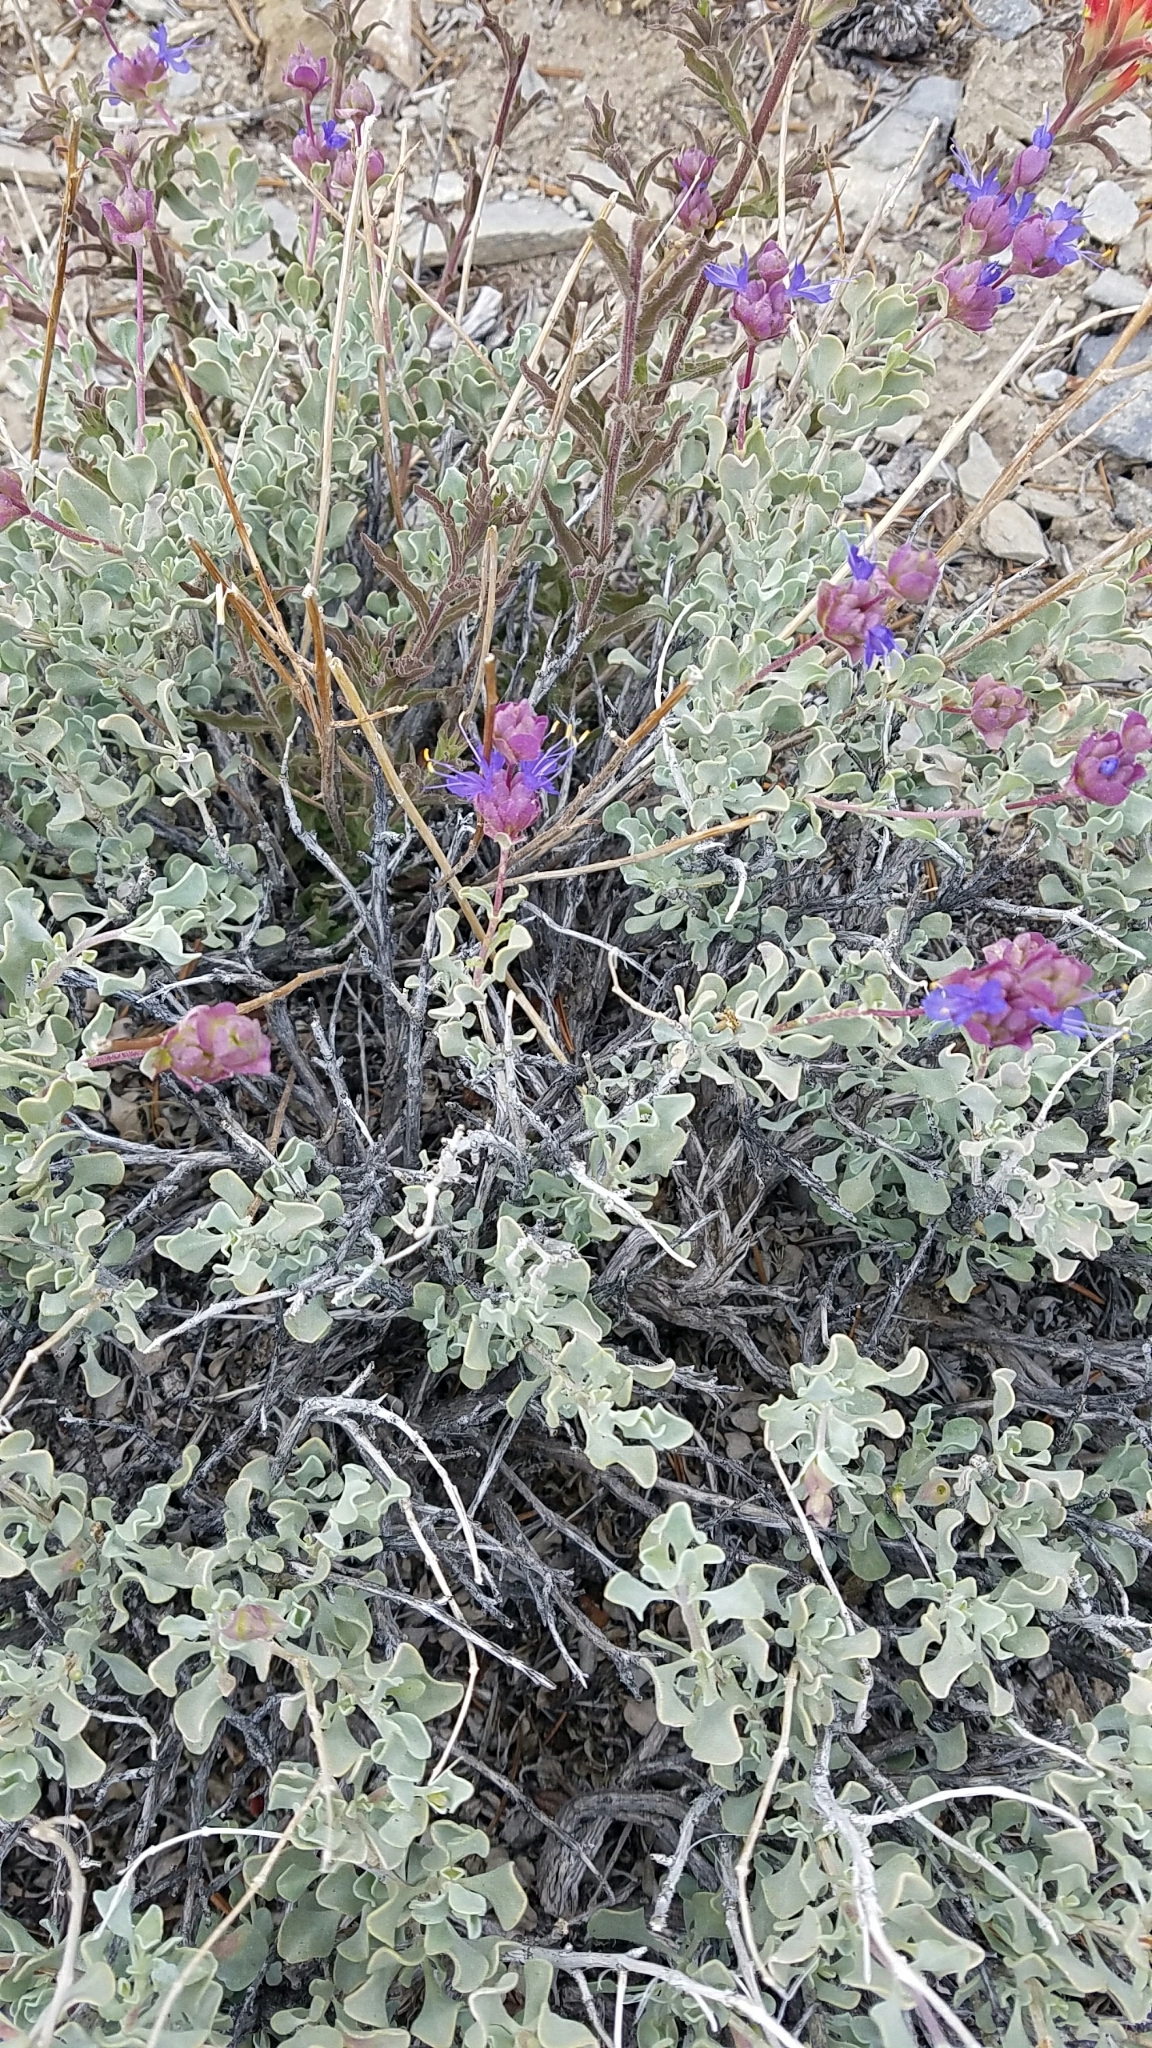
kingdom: Plantae
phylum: Tracheophyta
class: Magnoliopsida
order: Lamiales
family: Lamiaceae
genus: Salvia
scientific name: Salvia dorrii
